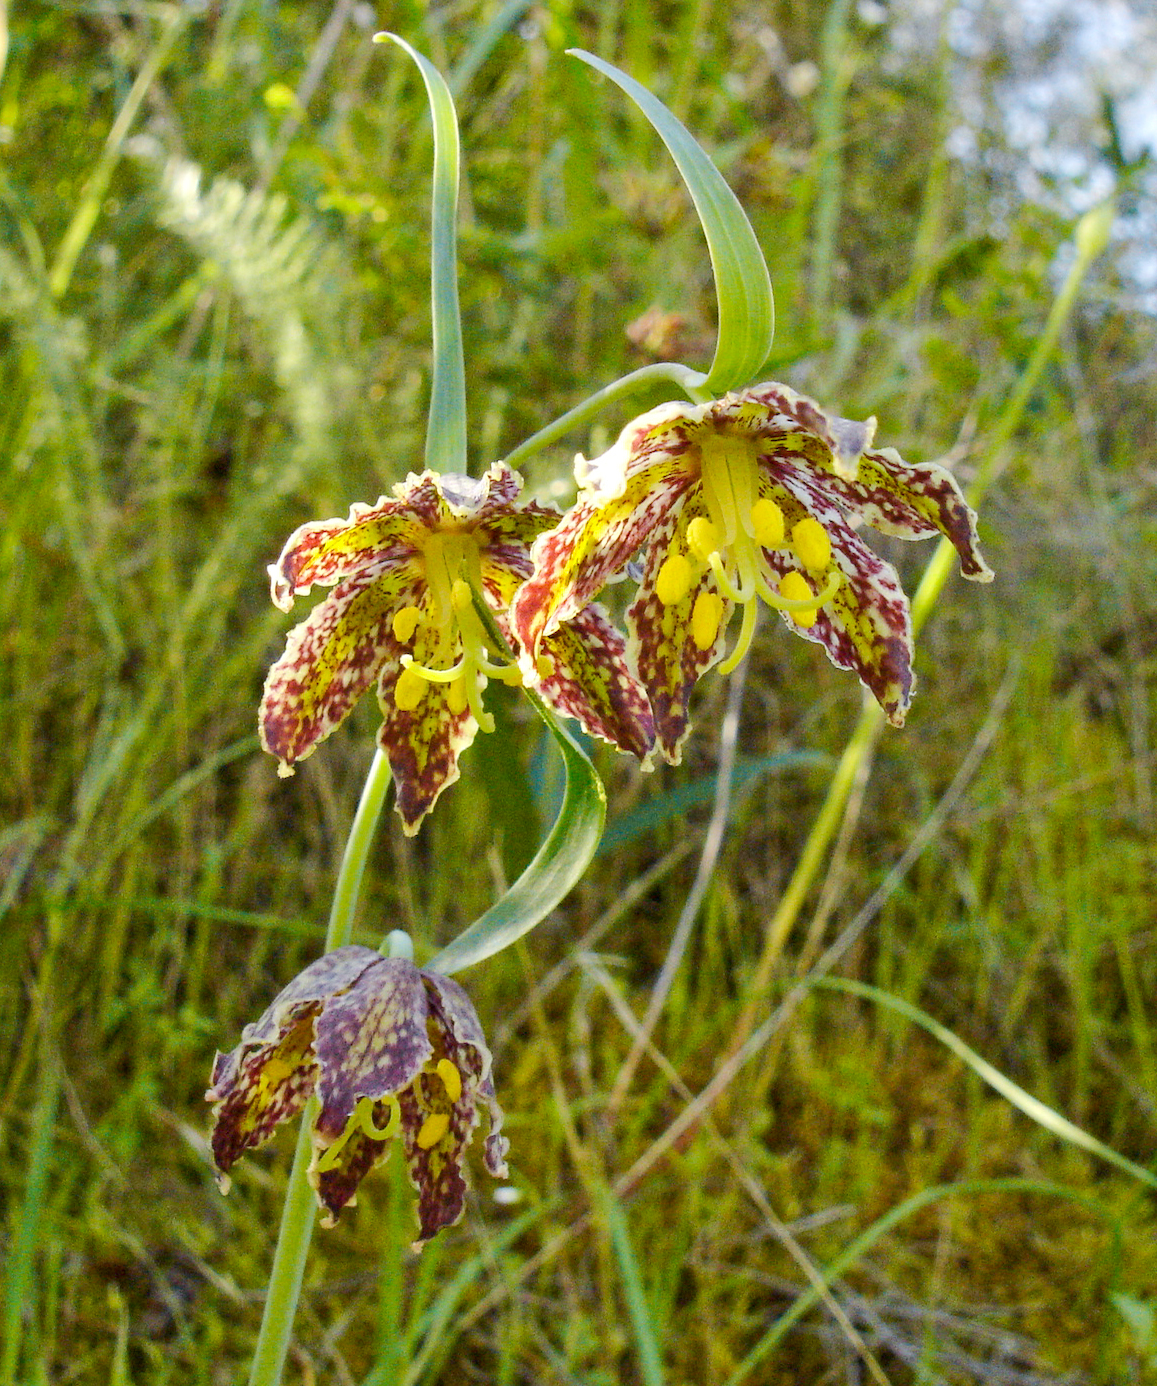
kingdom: Plantae
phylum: Tracheophyta
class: Liliopsida
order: Liliales
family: Liliaceae
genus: Fritillaria
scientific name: Fritillaria affinis
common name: Ojai fritillary
